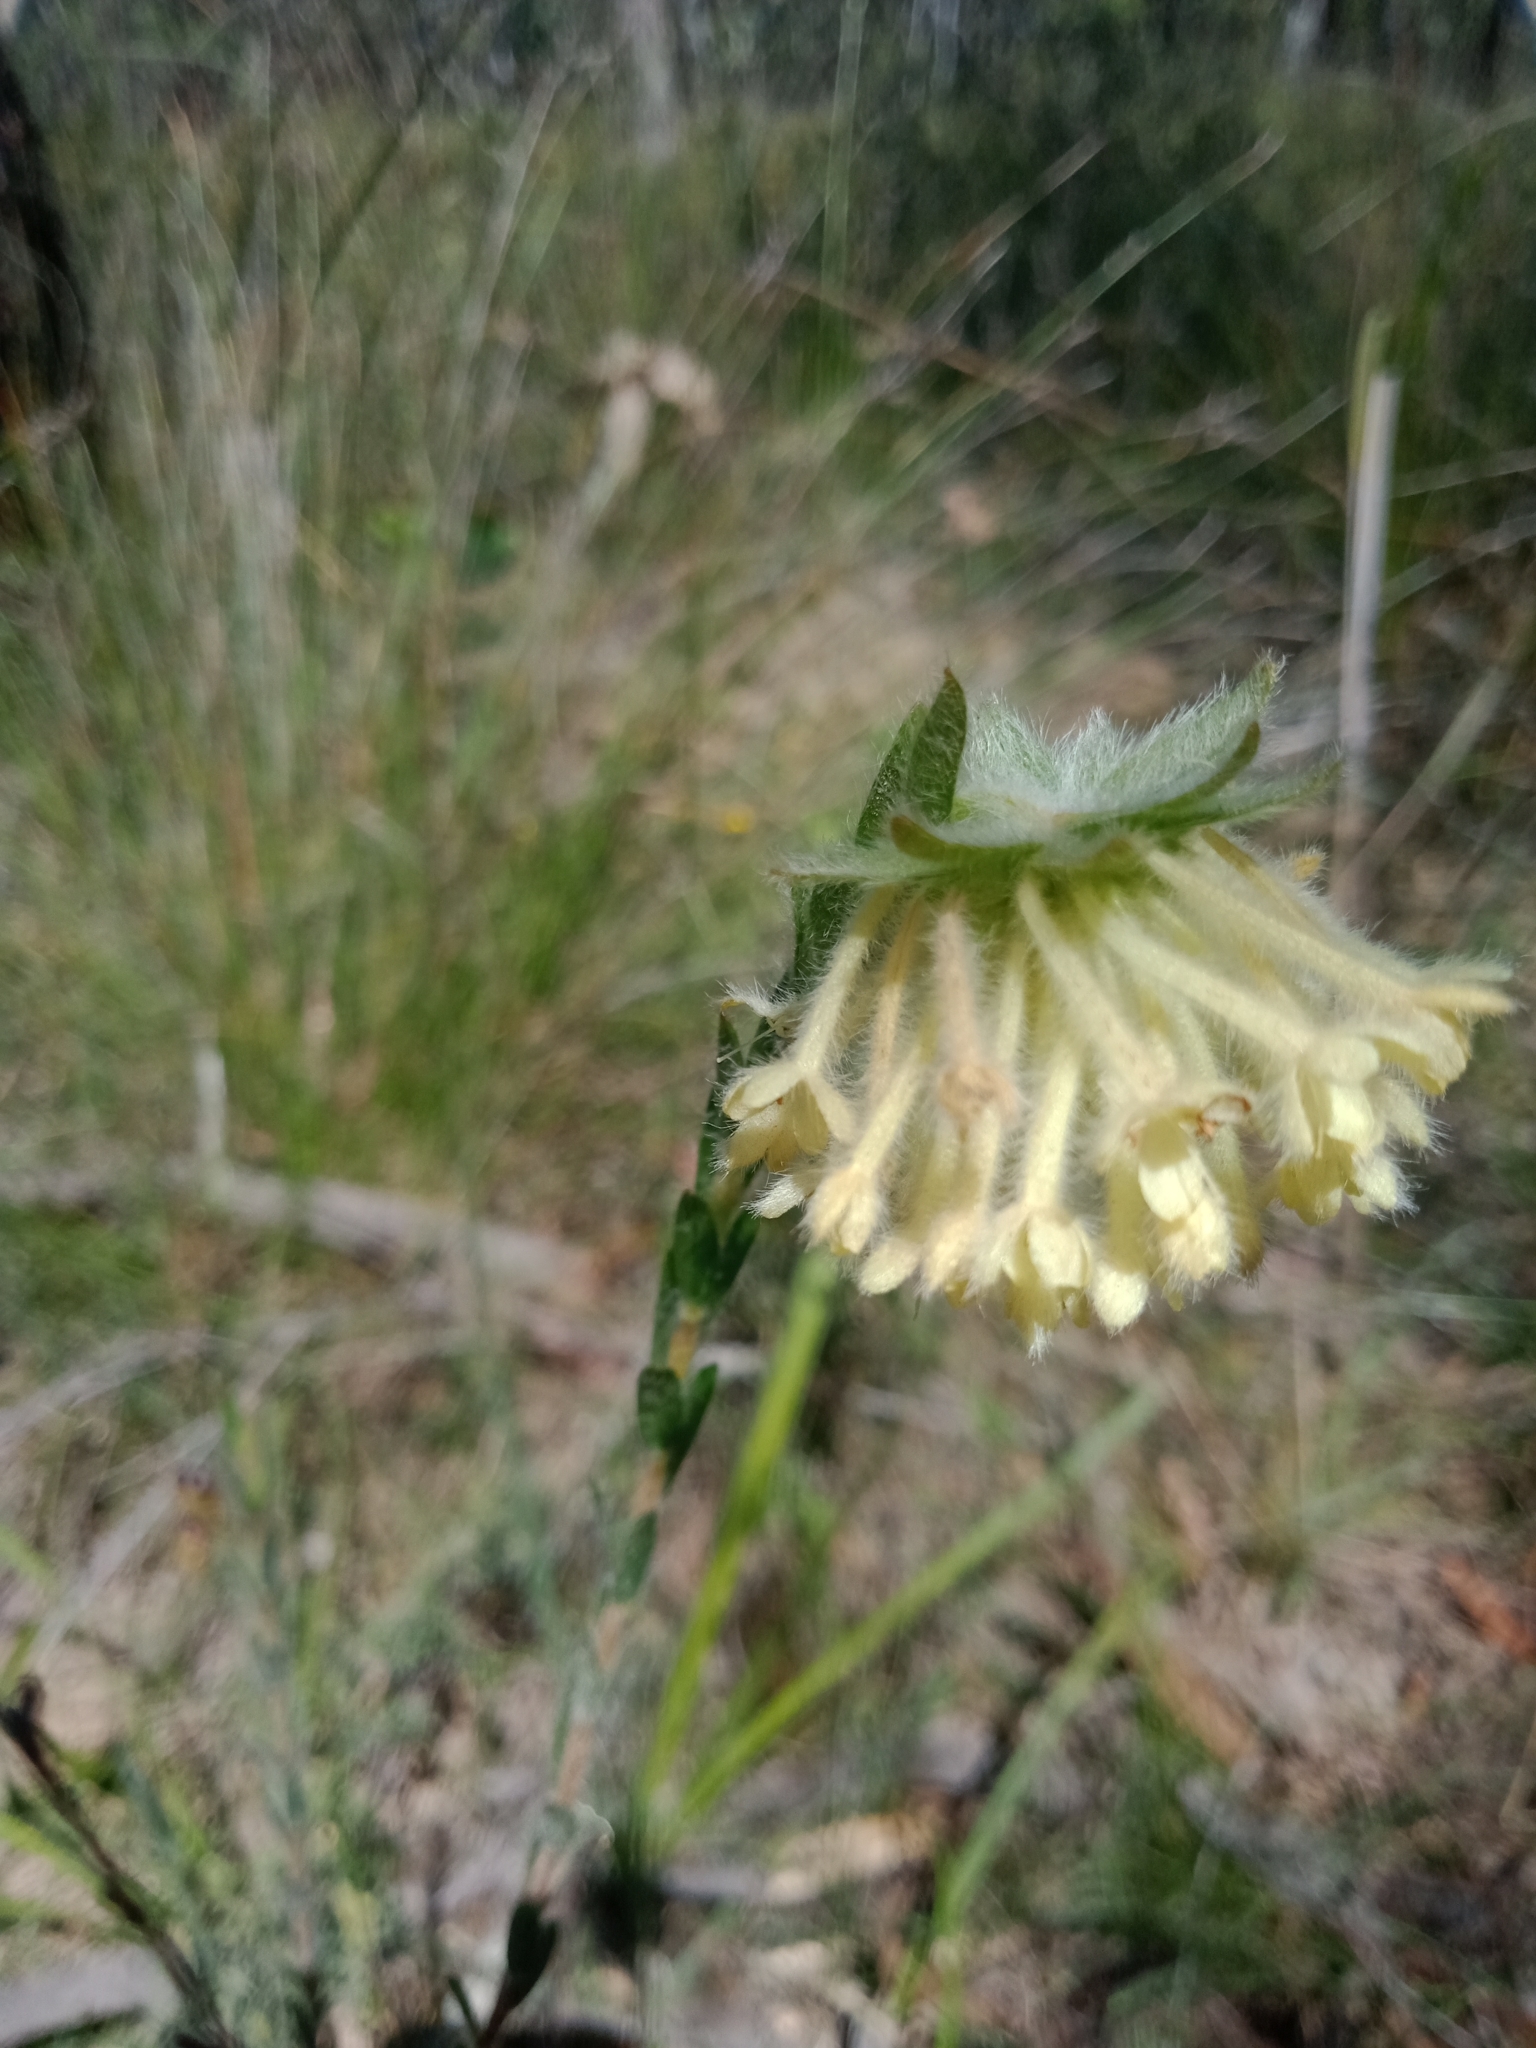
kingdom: Plantae
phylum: Tracheophyta
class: Magnoliopsida
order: Malvales
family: Thymelaeaceae
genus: Pimelea
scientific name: Pimelea octophylla
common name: Woolly riceflower
